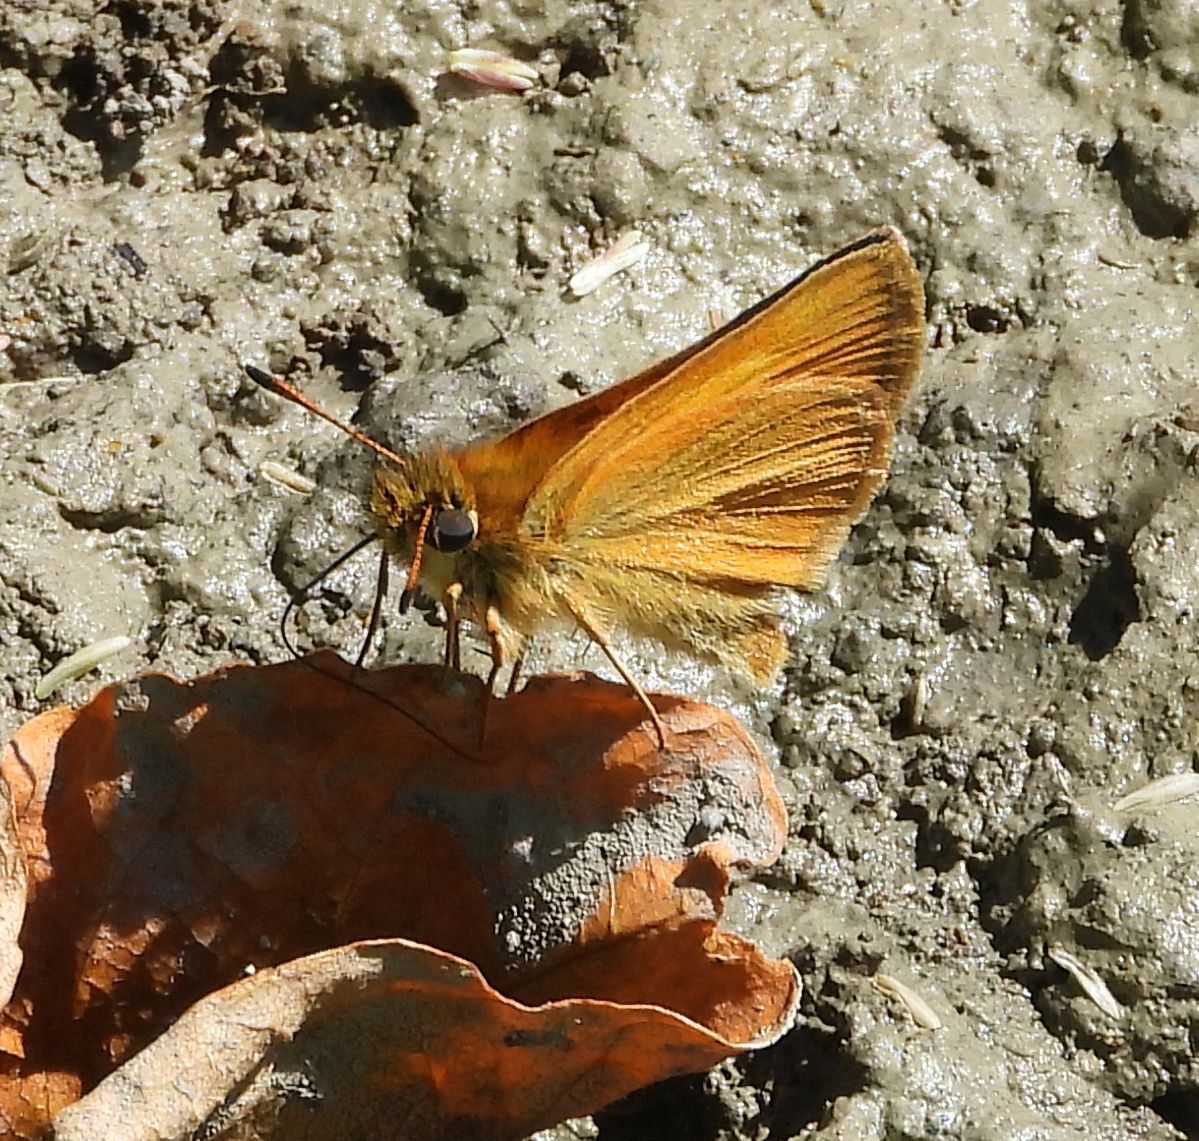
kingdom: Animalia
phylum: Arthropoda
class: Insecta
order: Lepidoptera
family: Hesperiidae
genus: Thymelicus
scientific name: Thymelicus lineola
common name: Essex skipper
